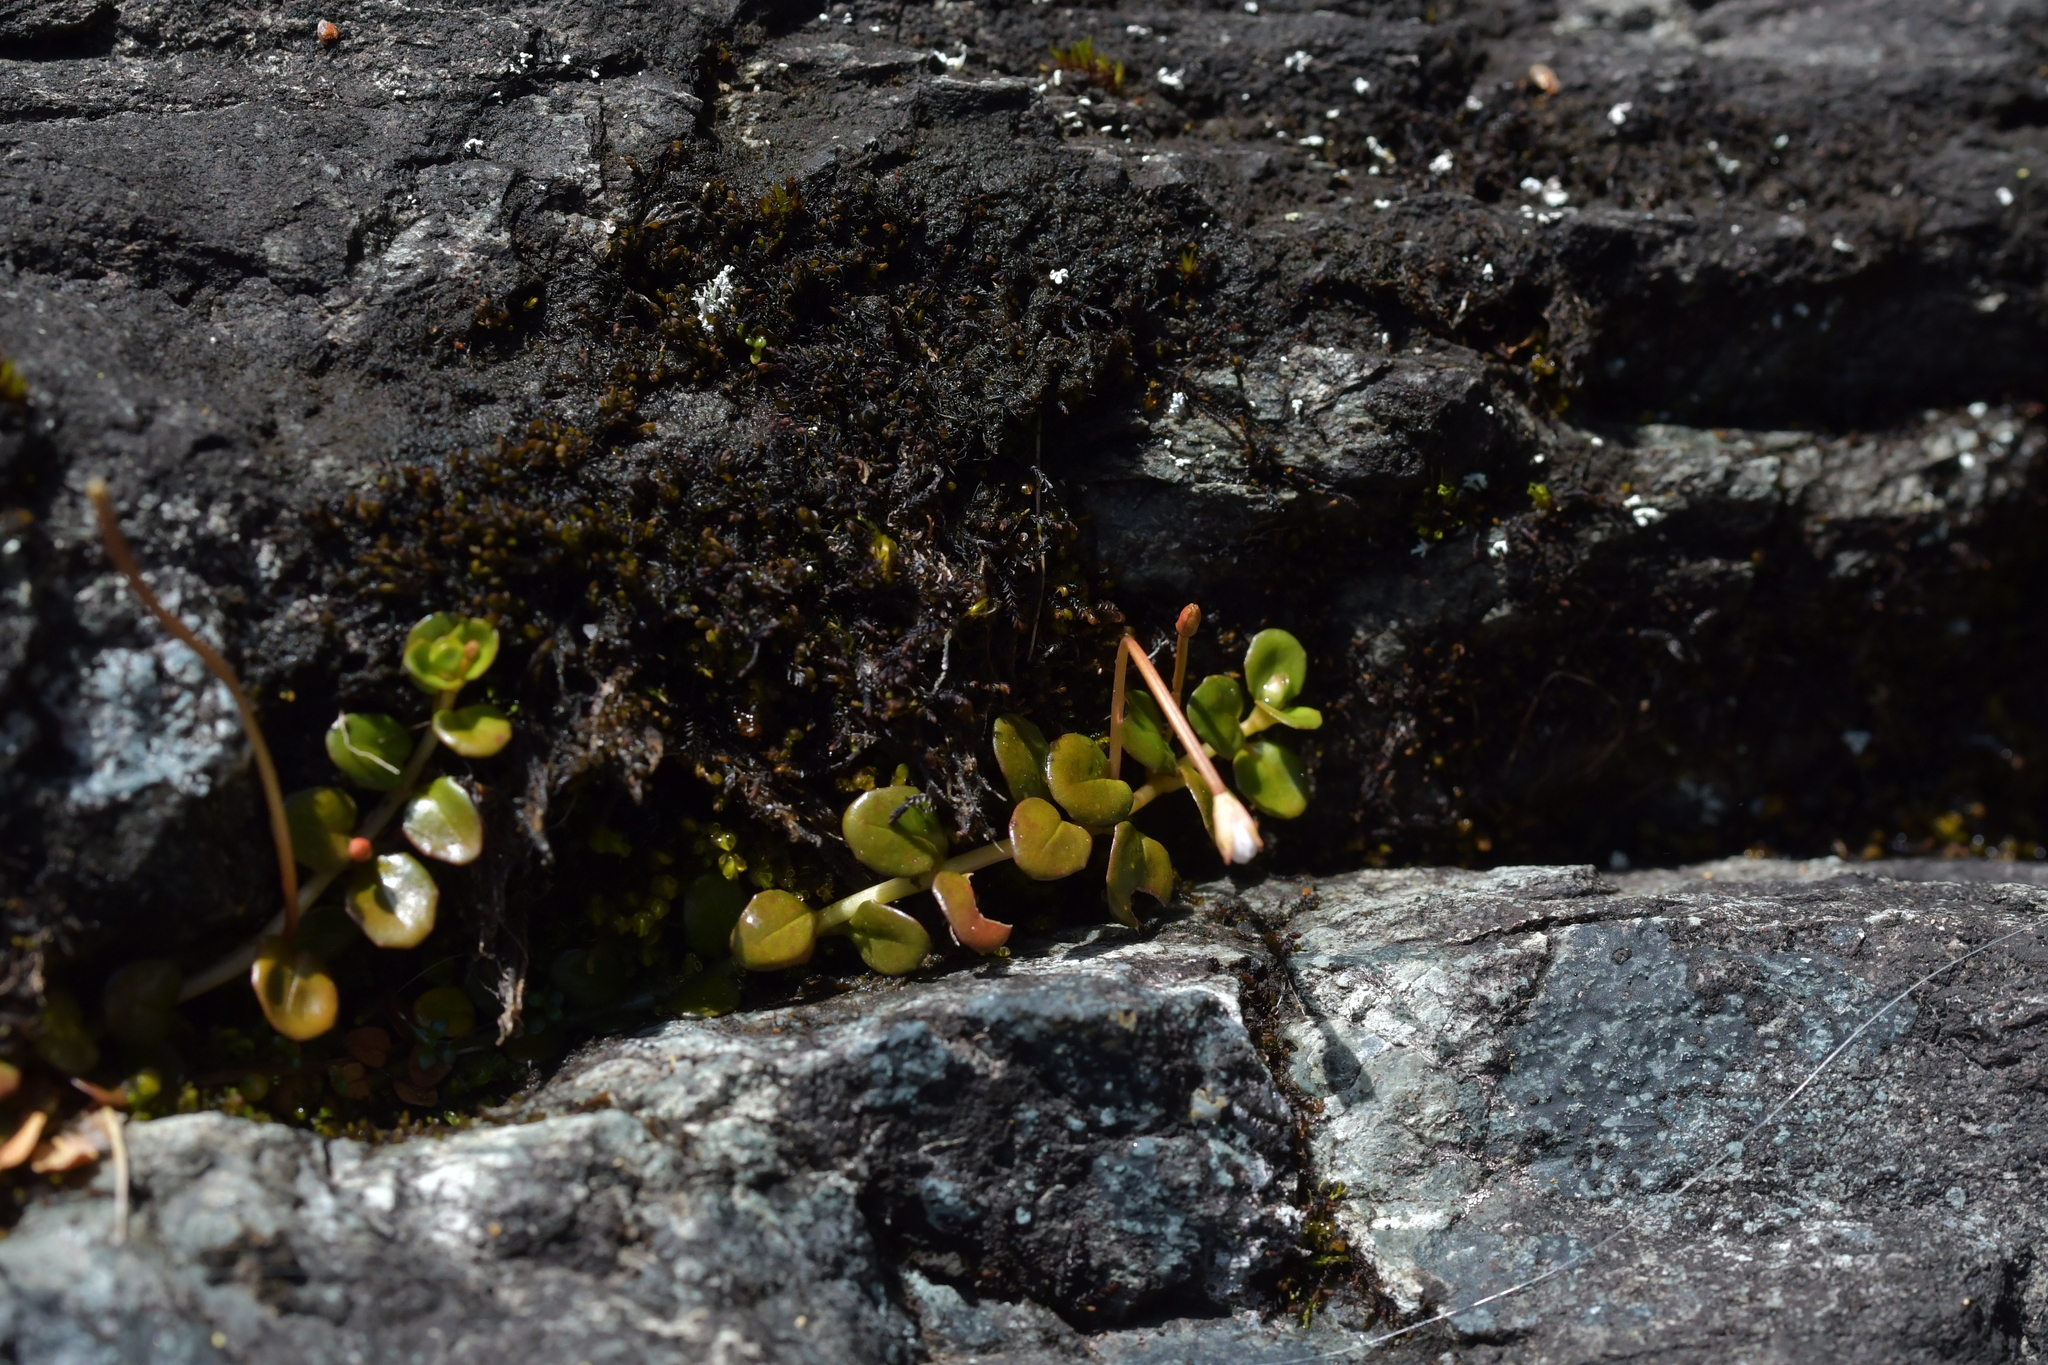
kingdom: Plantae
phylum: Tracheophyta
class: Magnoliopsida
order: Myrtales
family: Onagraceae
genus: Epilobium
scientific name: Epilobium pernitens
